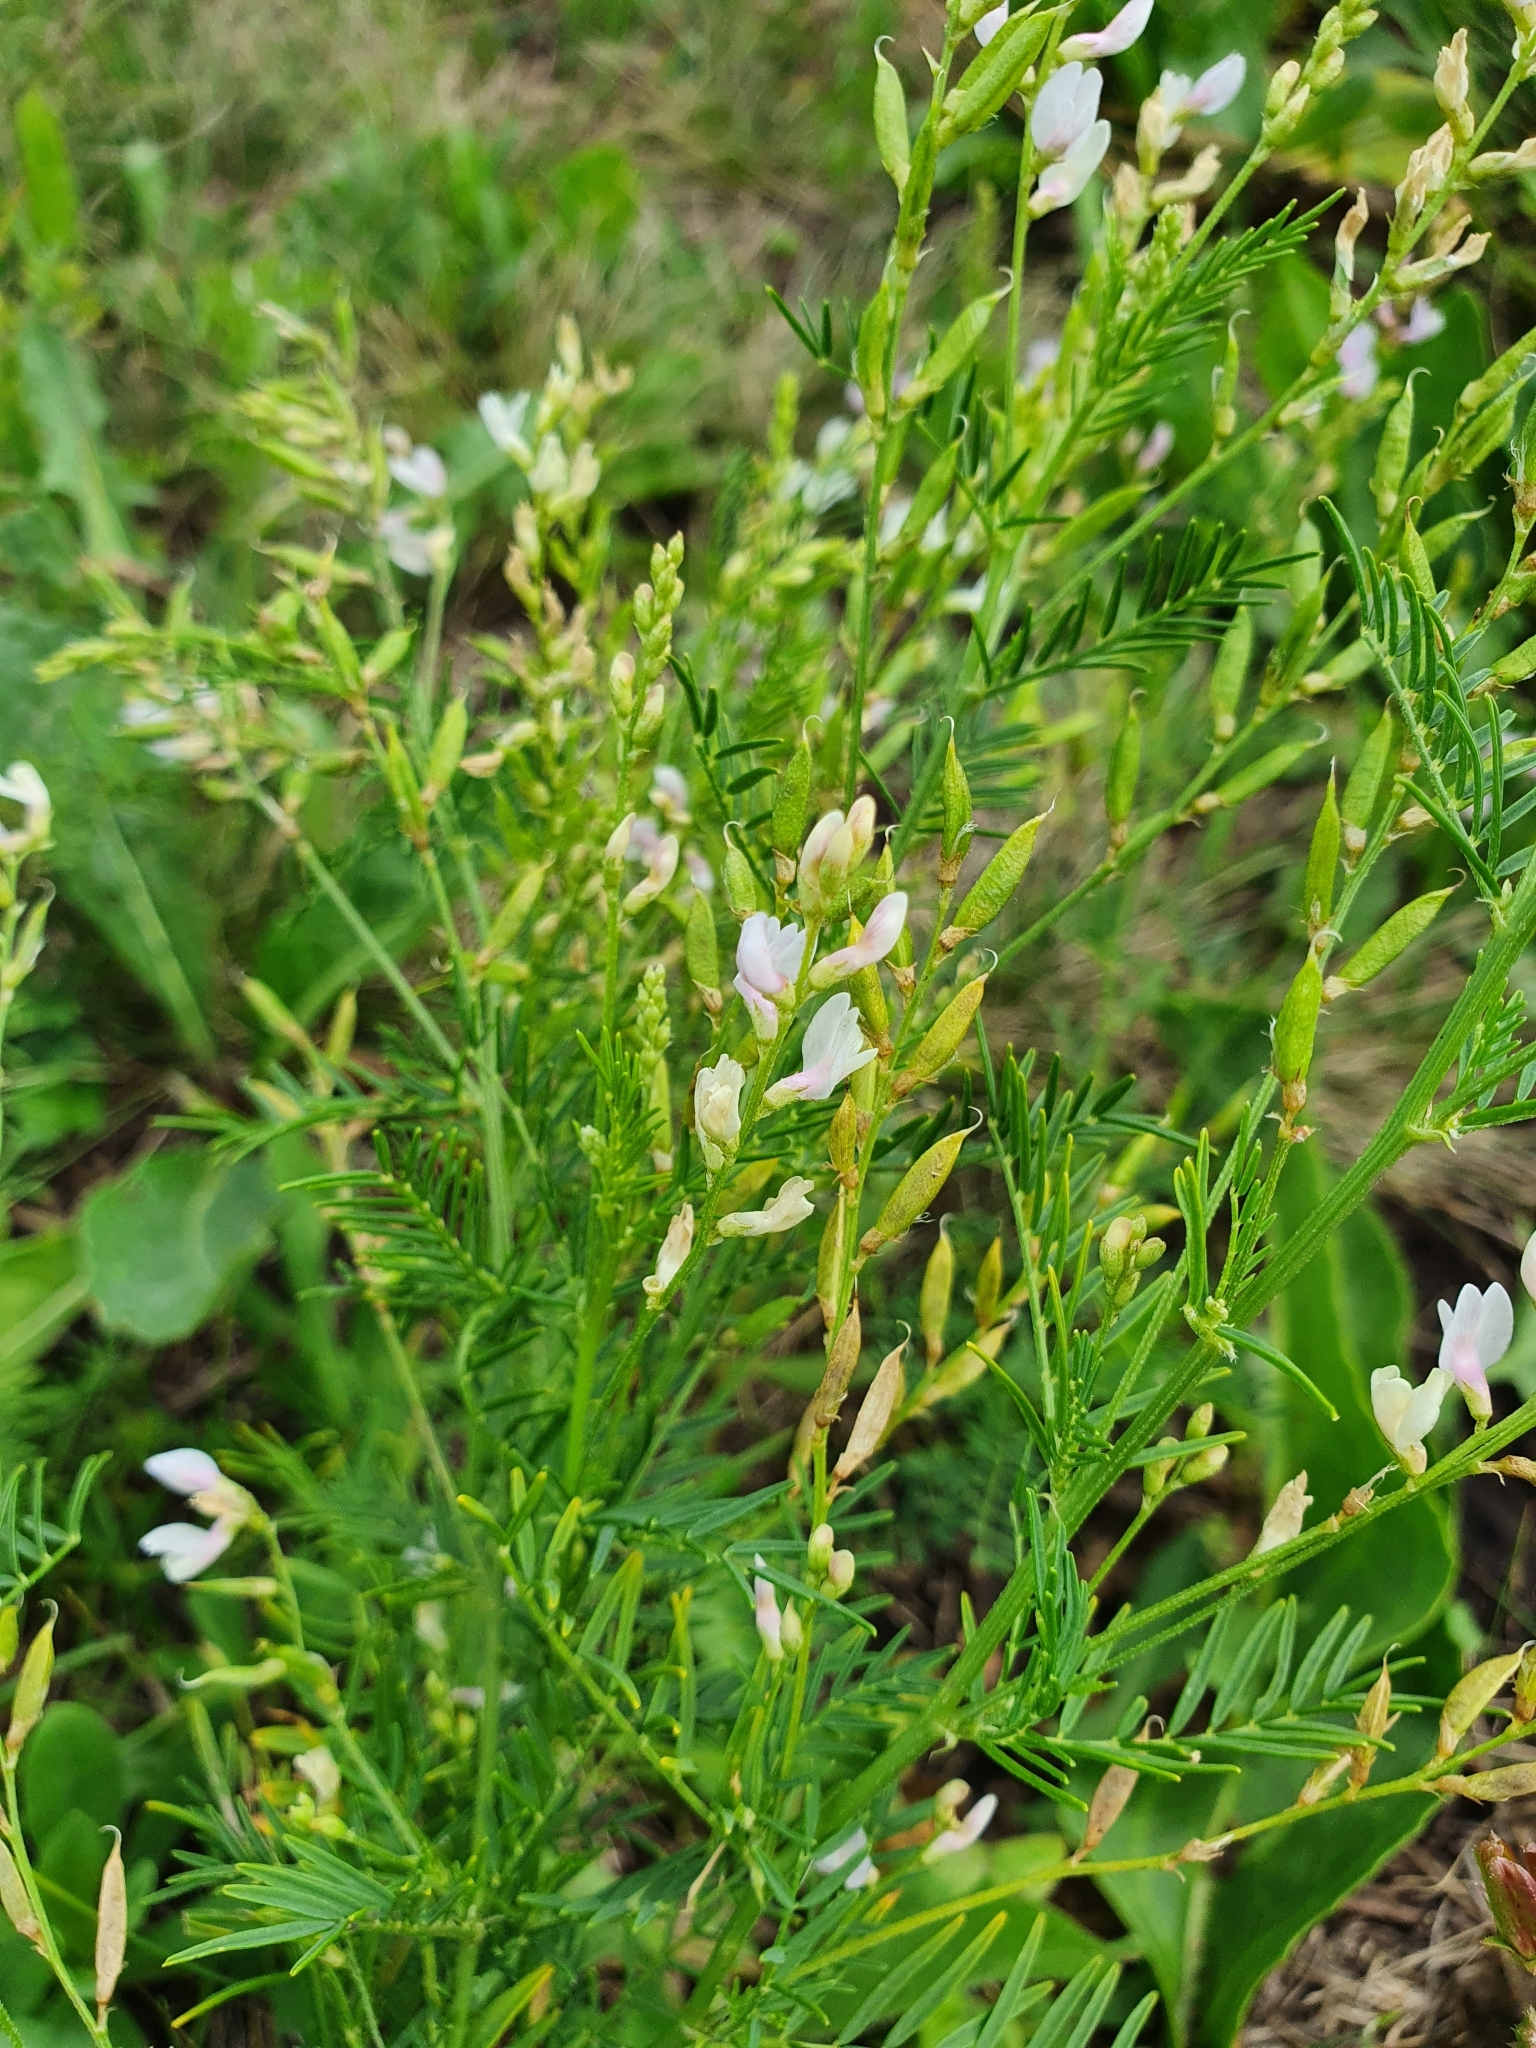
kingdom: Plantae
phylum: Tracheophyta
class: Magnoliopsida
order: Fabales
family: Fabaceae
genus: Astragalus
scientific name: Astragalus sulcatus
